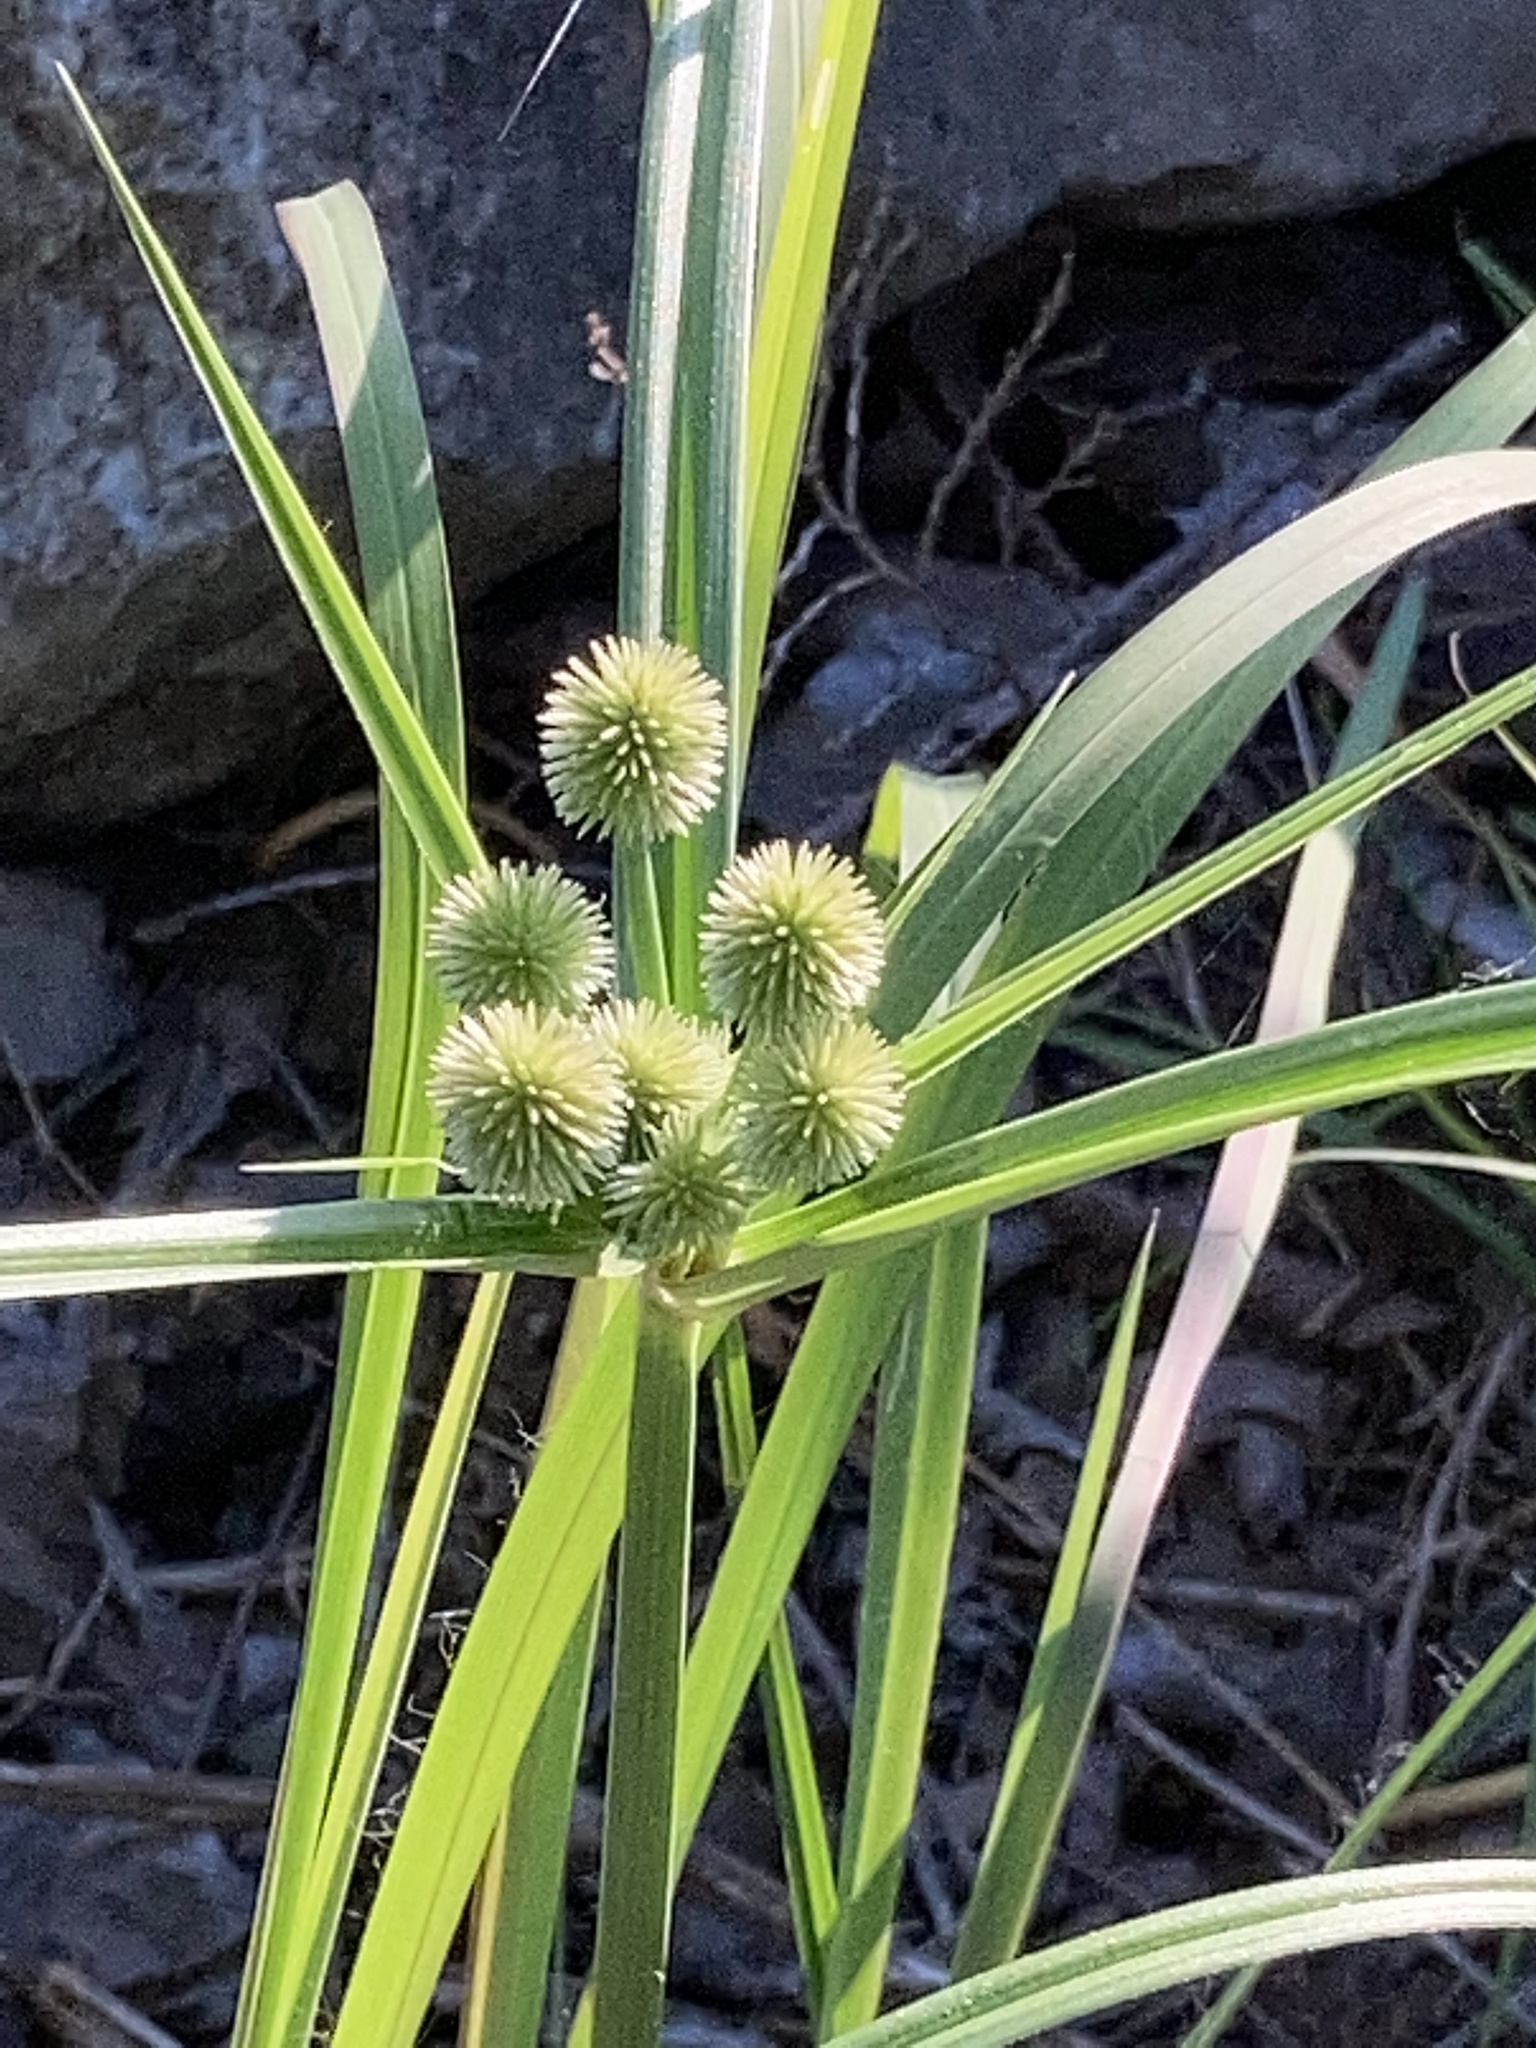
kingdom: Plantae
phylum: Tracheophyta
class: Liliopsida
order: Poales
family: Cyperaceae
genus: Cyperus
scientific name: Cyperus echinatus
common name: Teasel sedge
